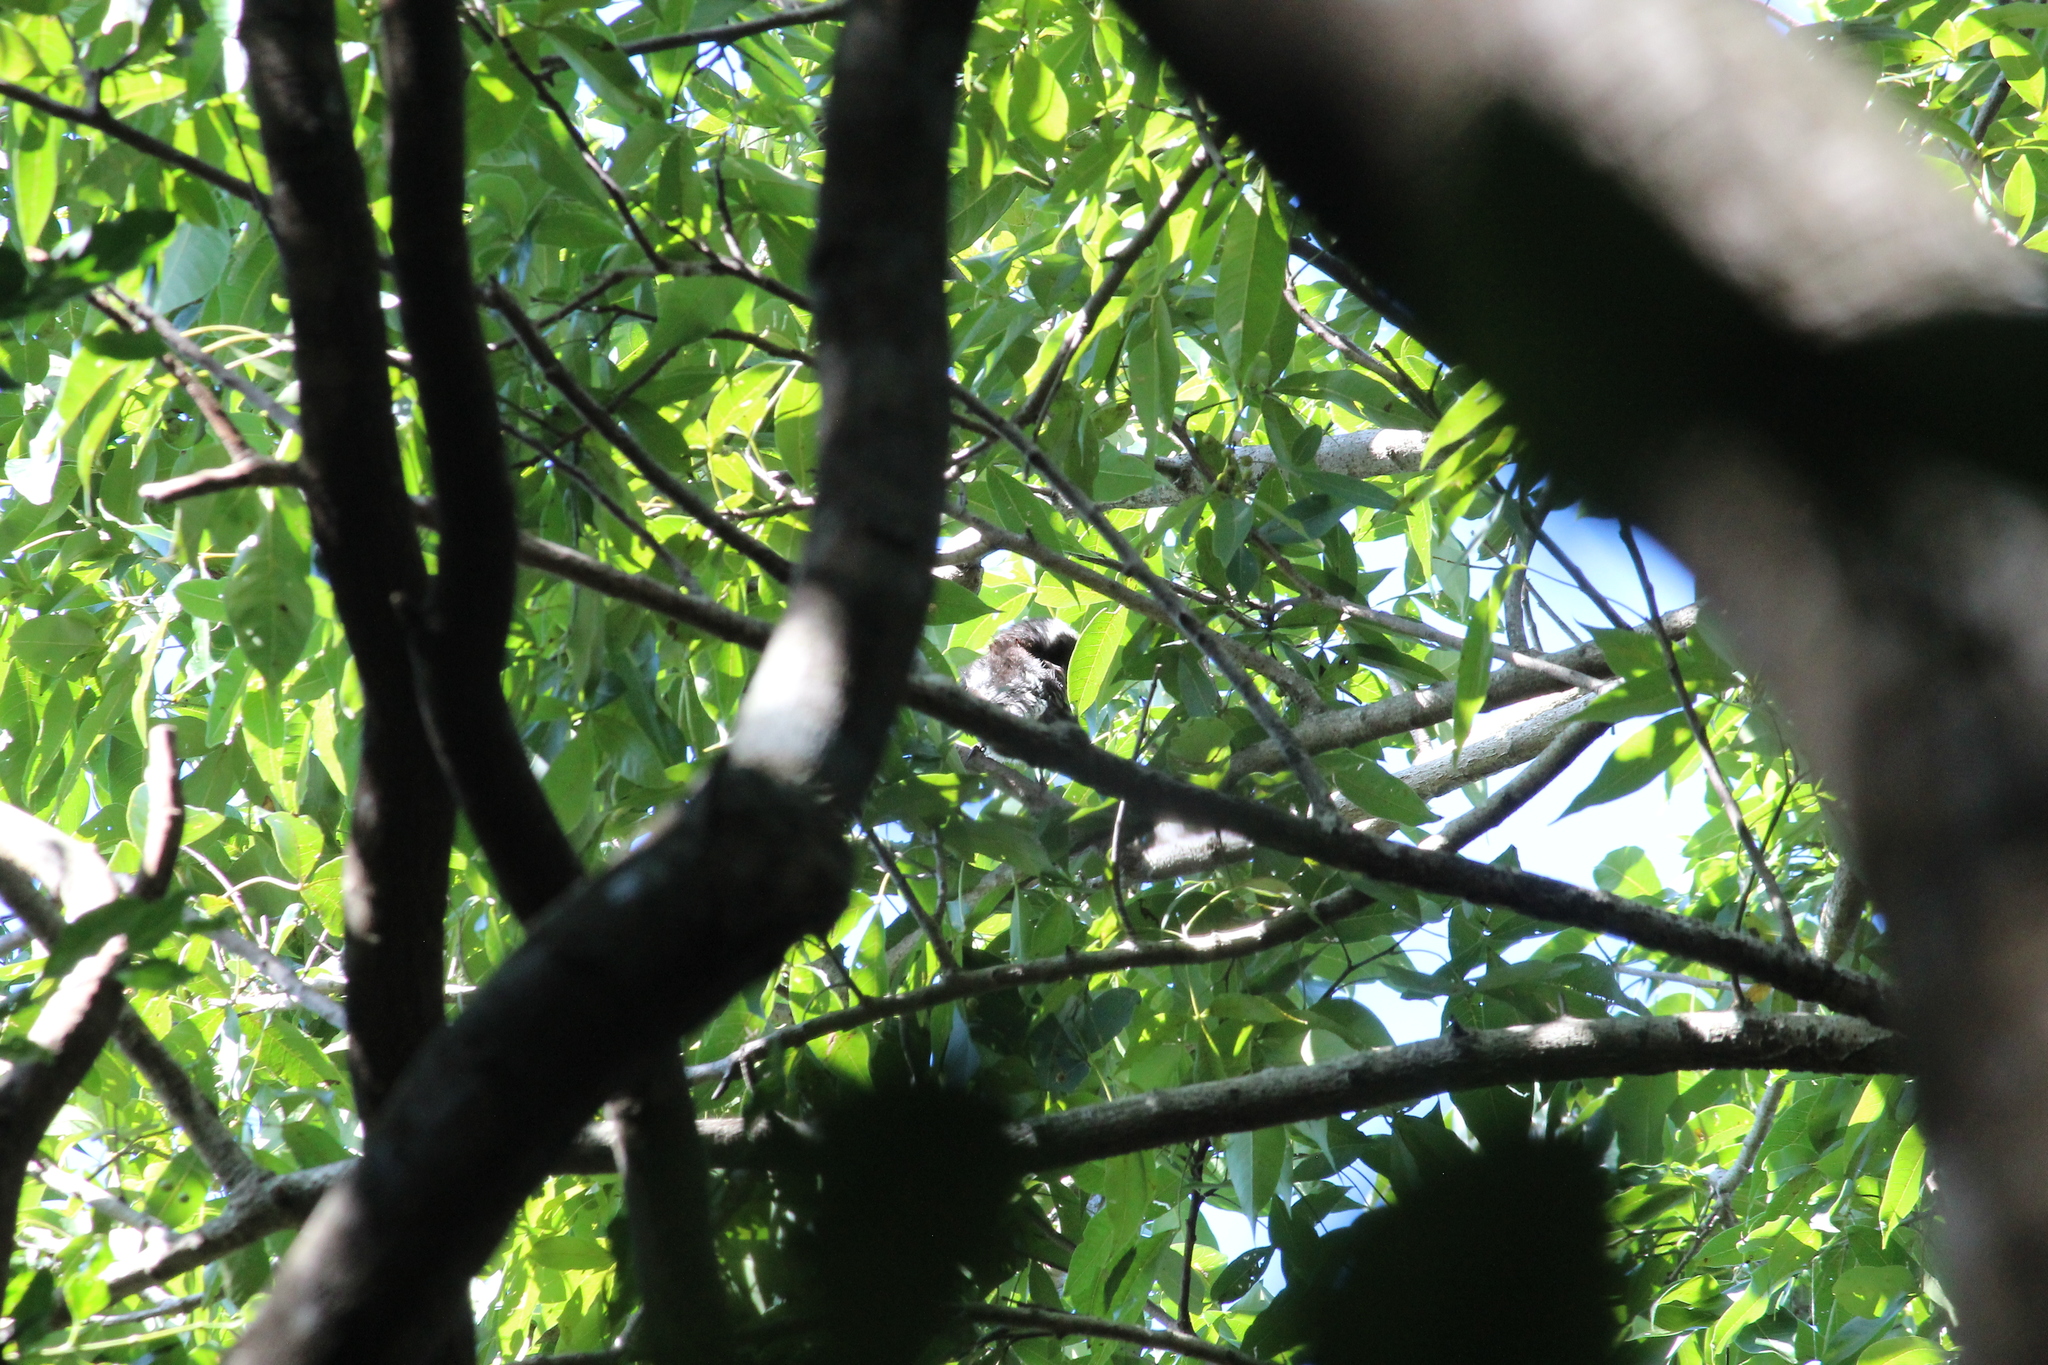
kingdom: Animalia
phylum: Chordata
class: Aves
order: Piciformes
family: Lybiidae
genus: Stactolaema
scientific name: Stactolaema leucotis
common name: White-eared barbet
